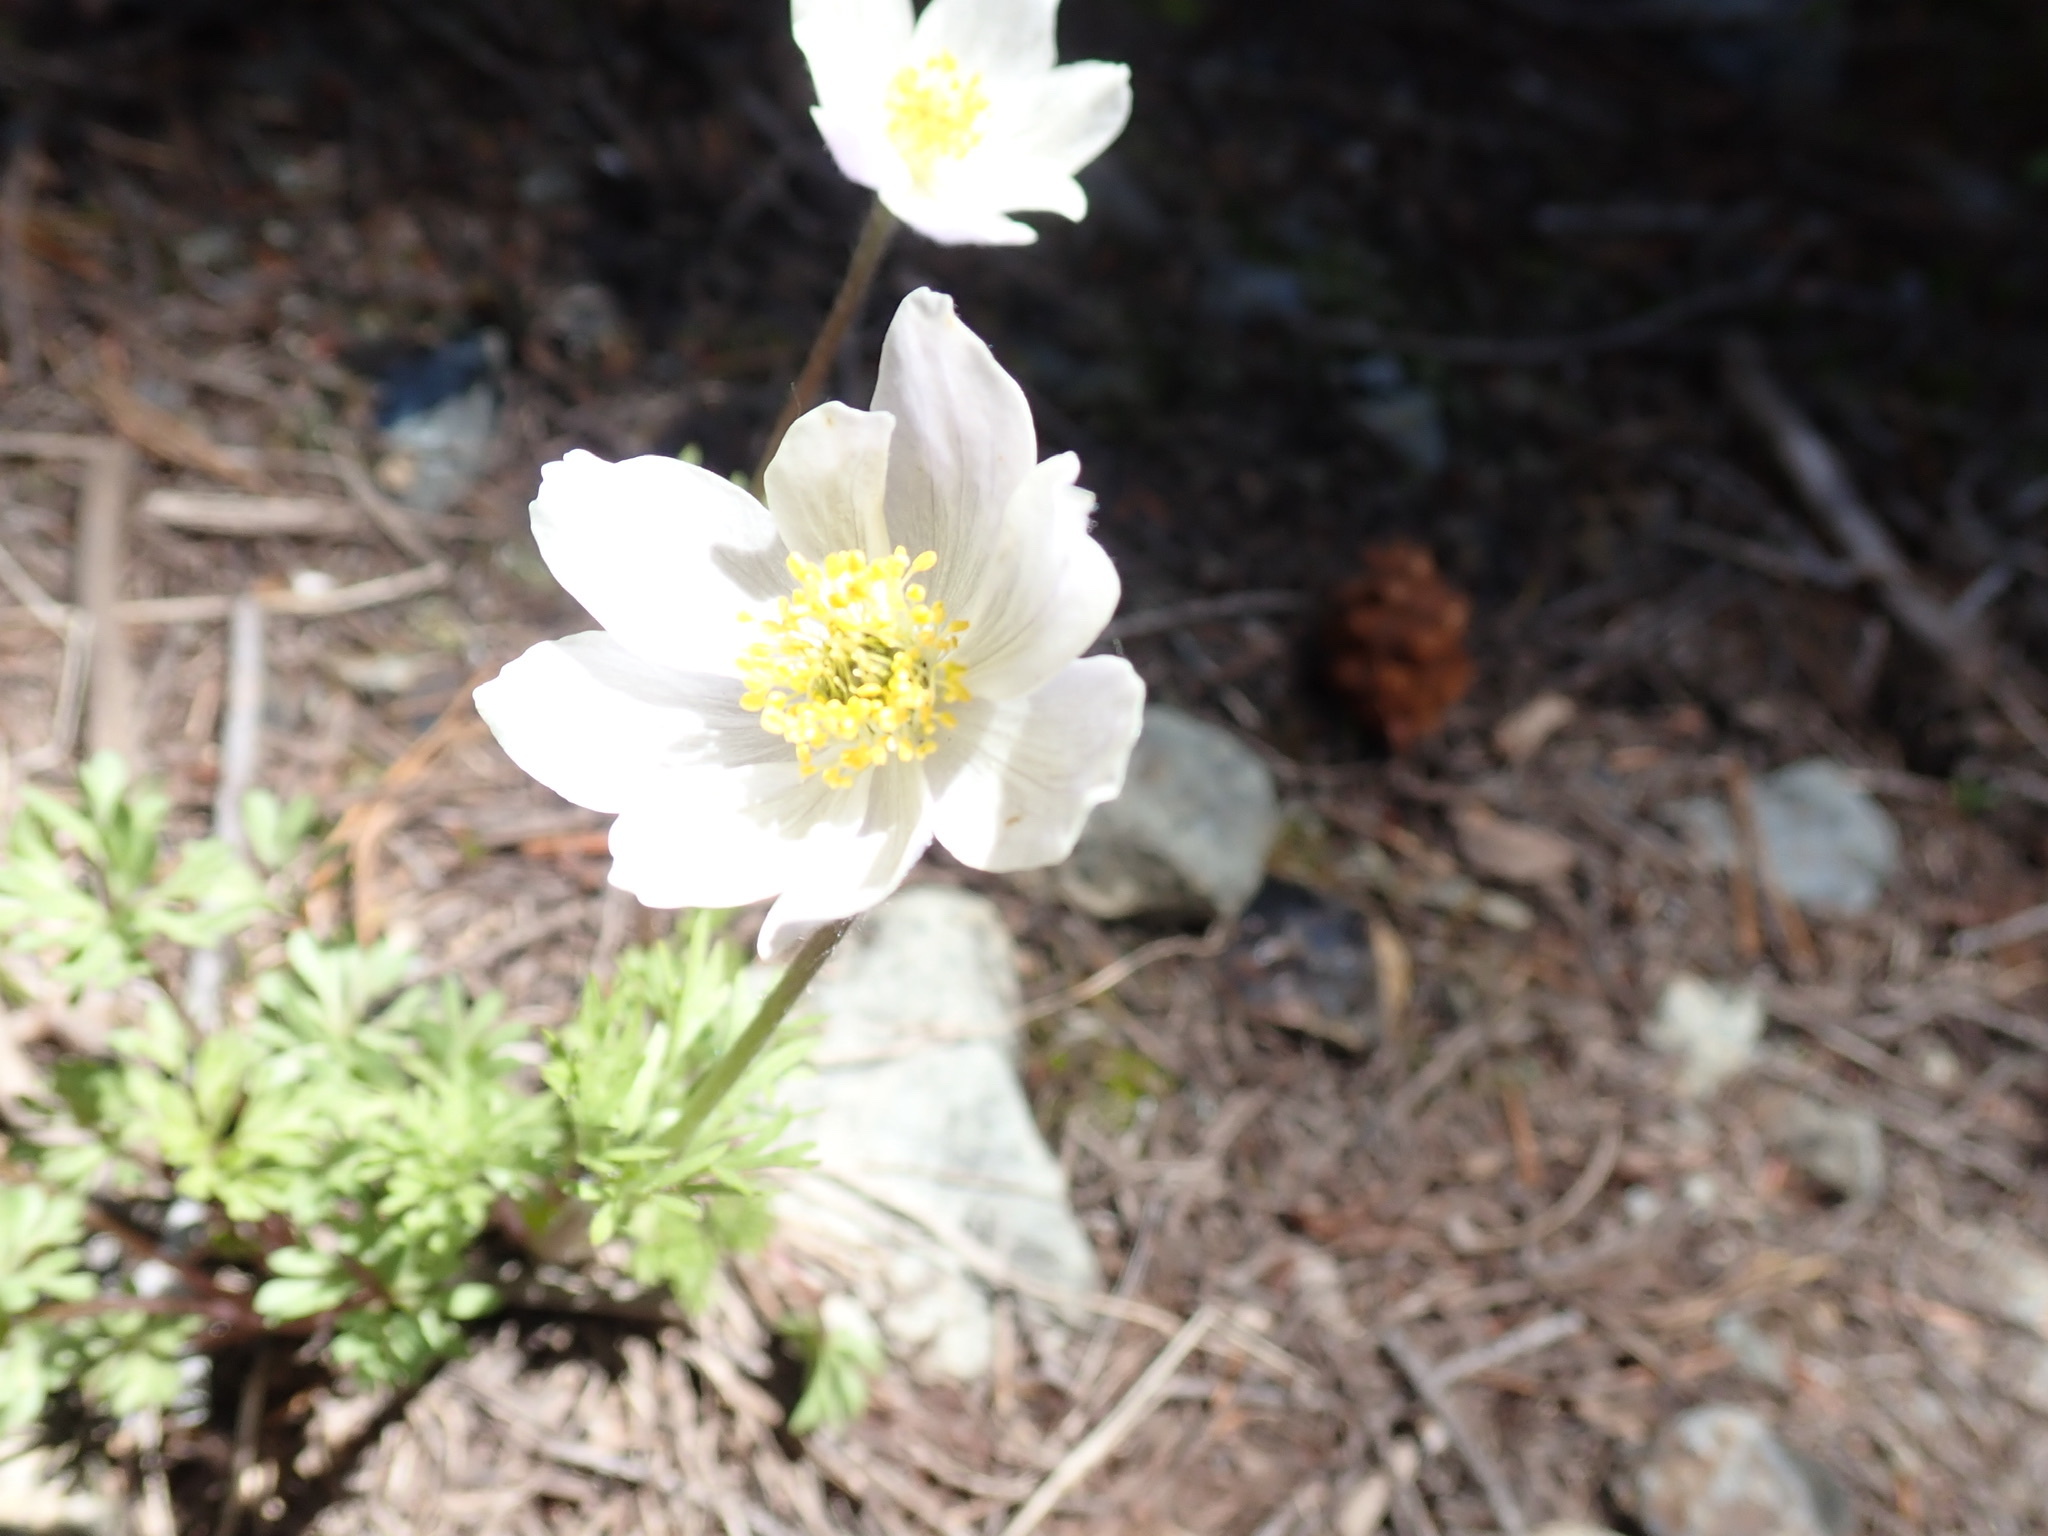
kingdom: Plantae
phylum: Tracheophyta
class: Magnoliopsida
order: Ranunculales
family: Ranunculaceae
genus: Anemone
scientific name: Anemone drummondii
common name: Drummond's anemone
